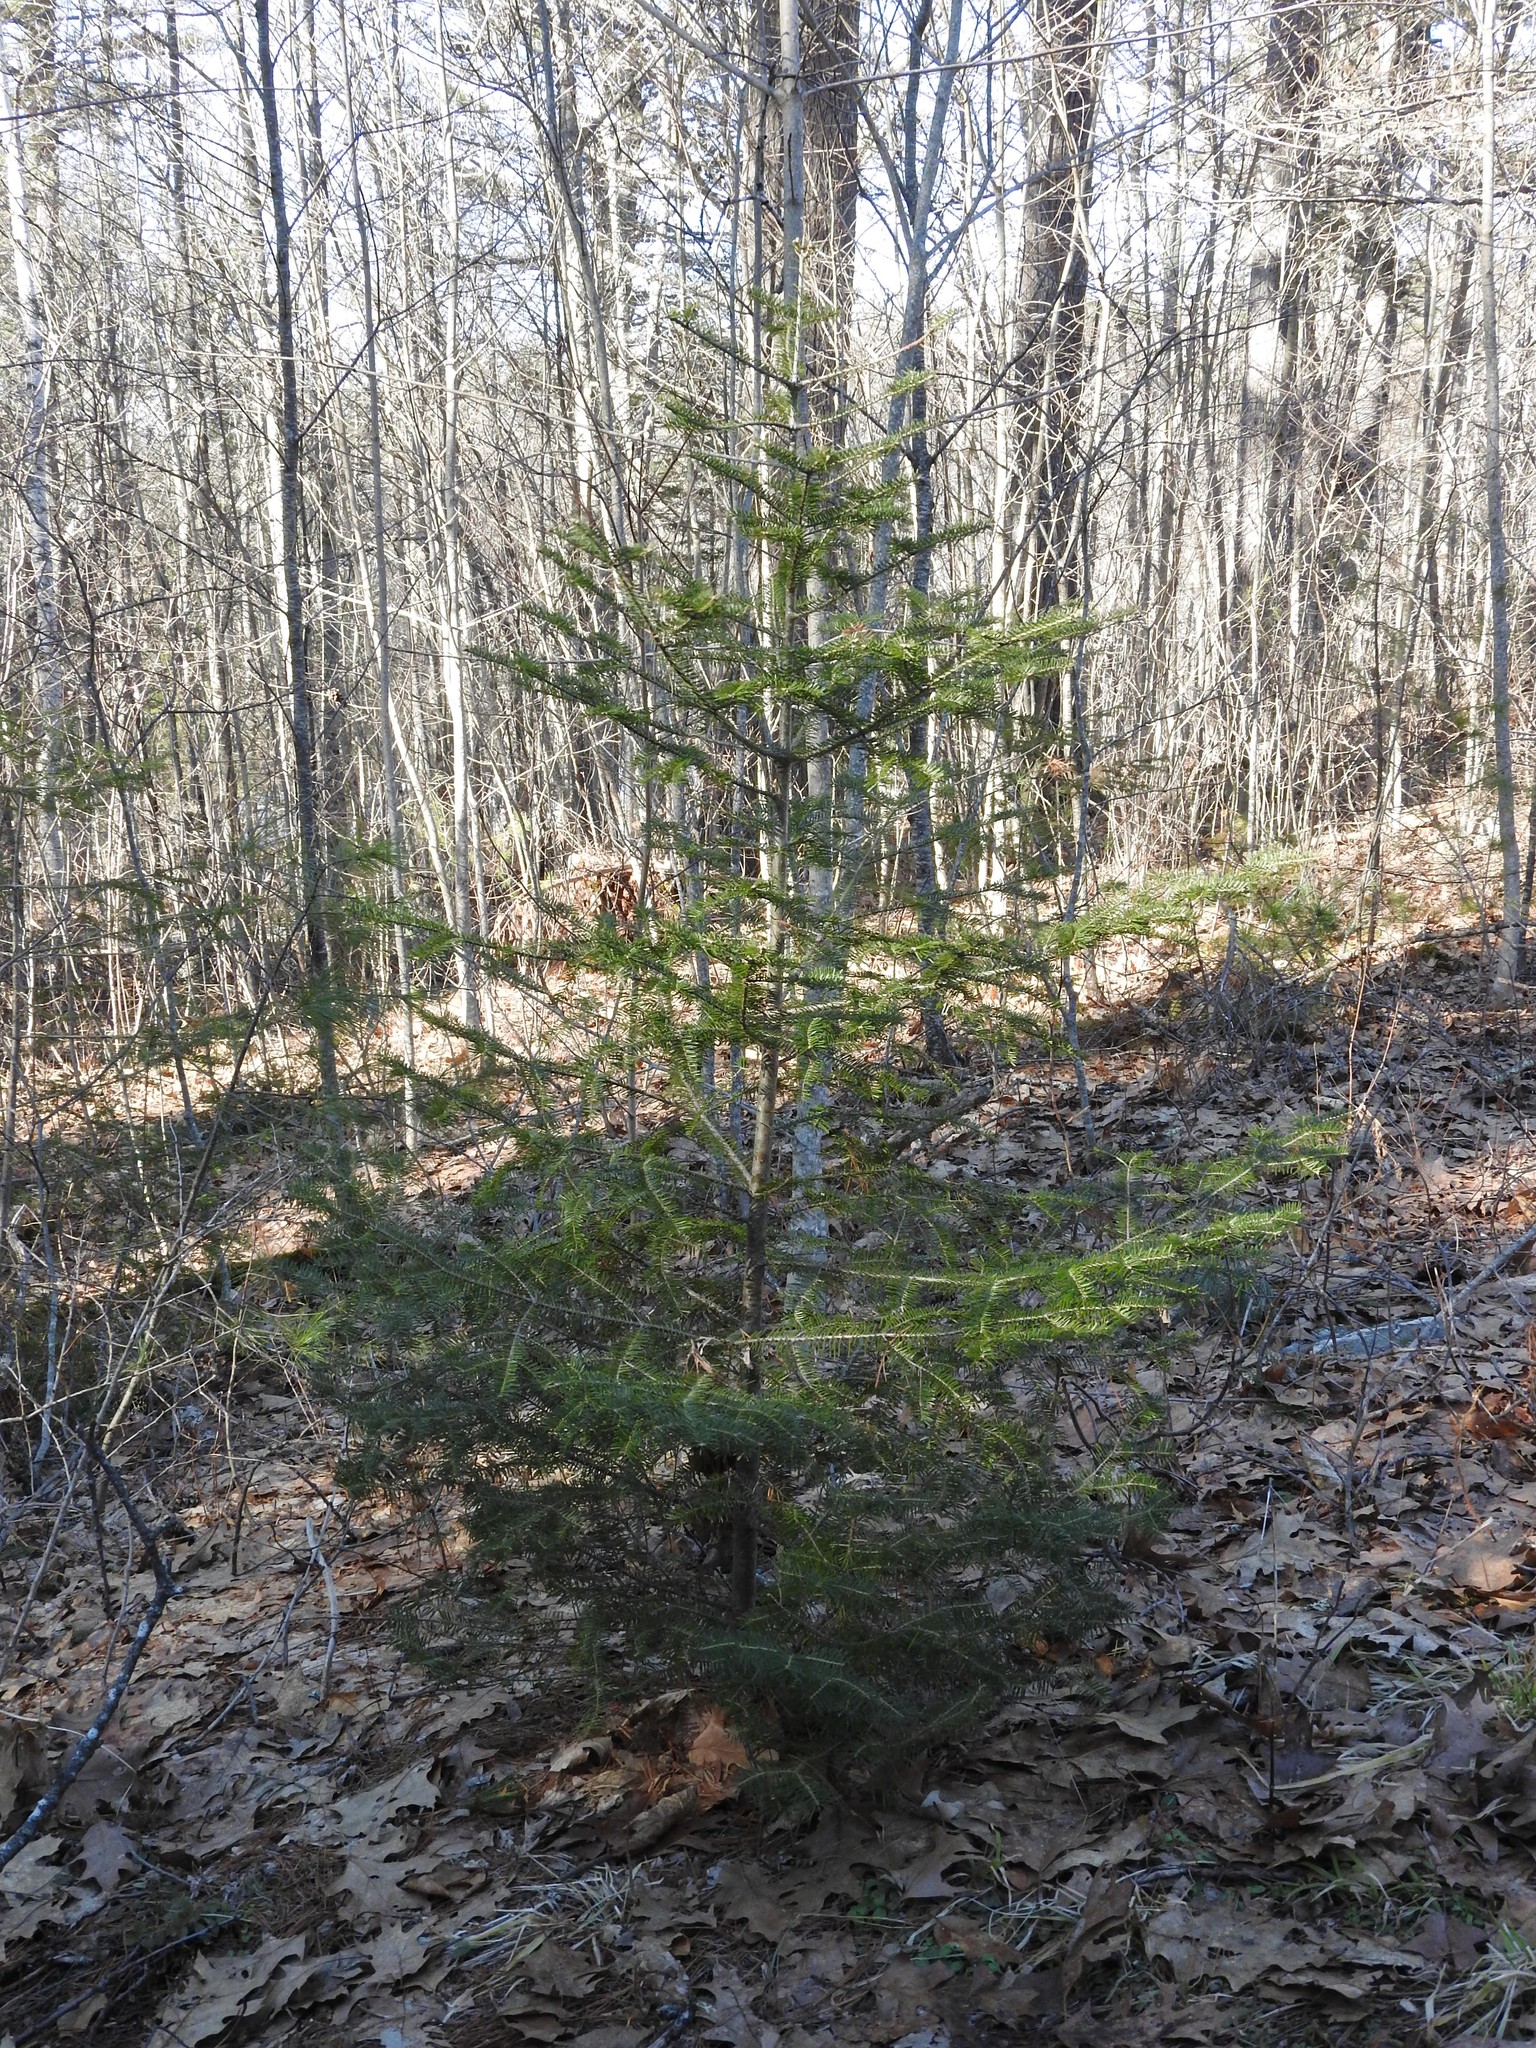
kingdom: Plantae
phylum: Tracheophyta
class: Pinopsida
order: Pinales
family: Pinaceae
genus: Abies
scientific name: Abies balsamea
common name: Balsam fir
